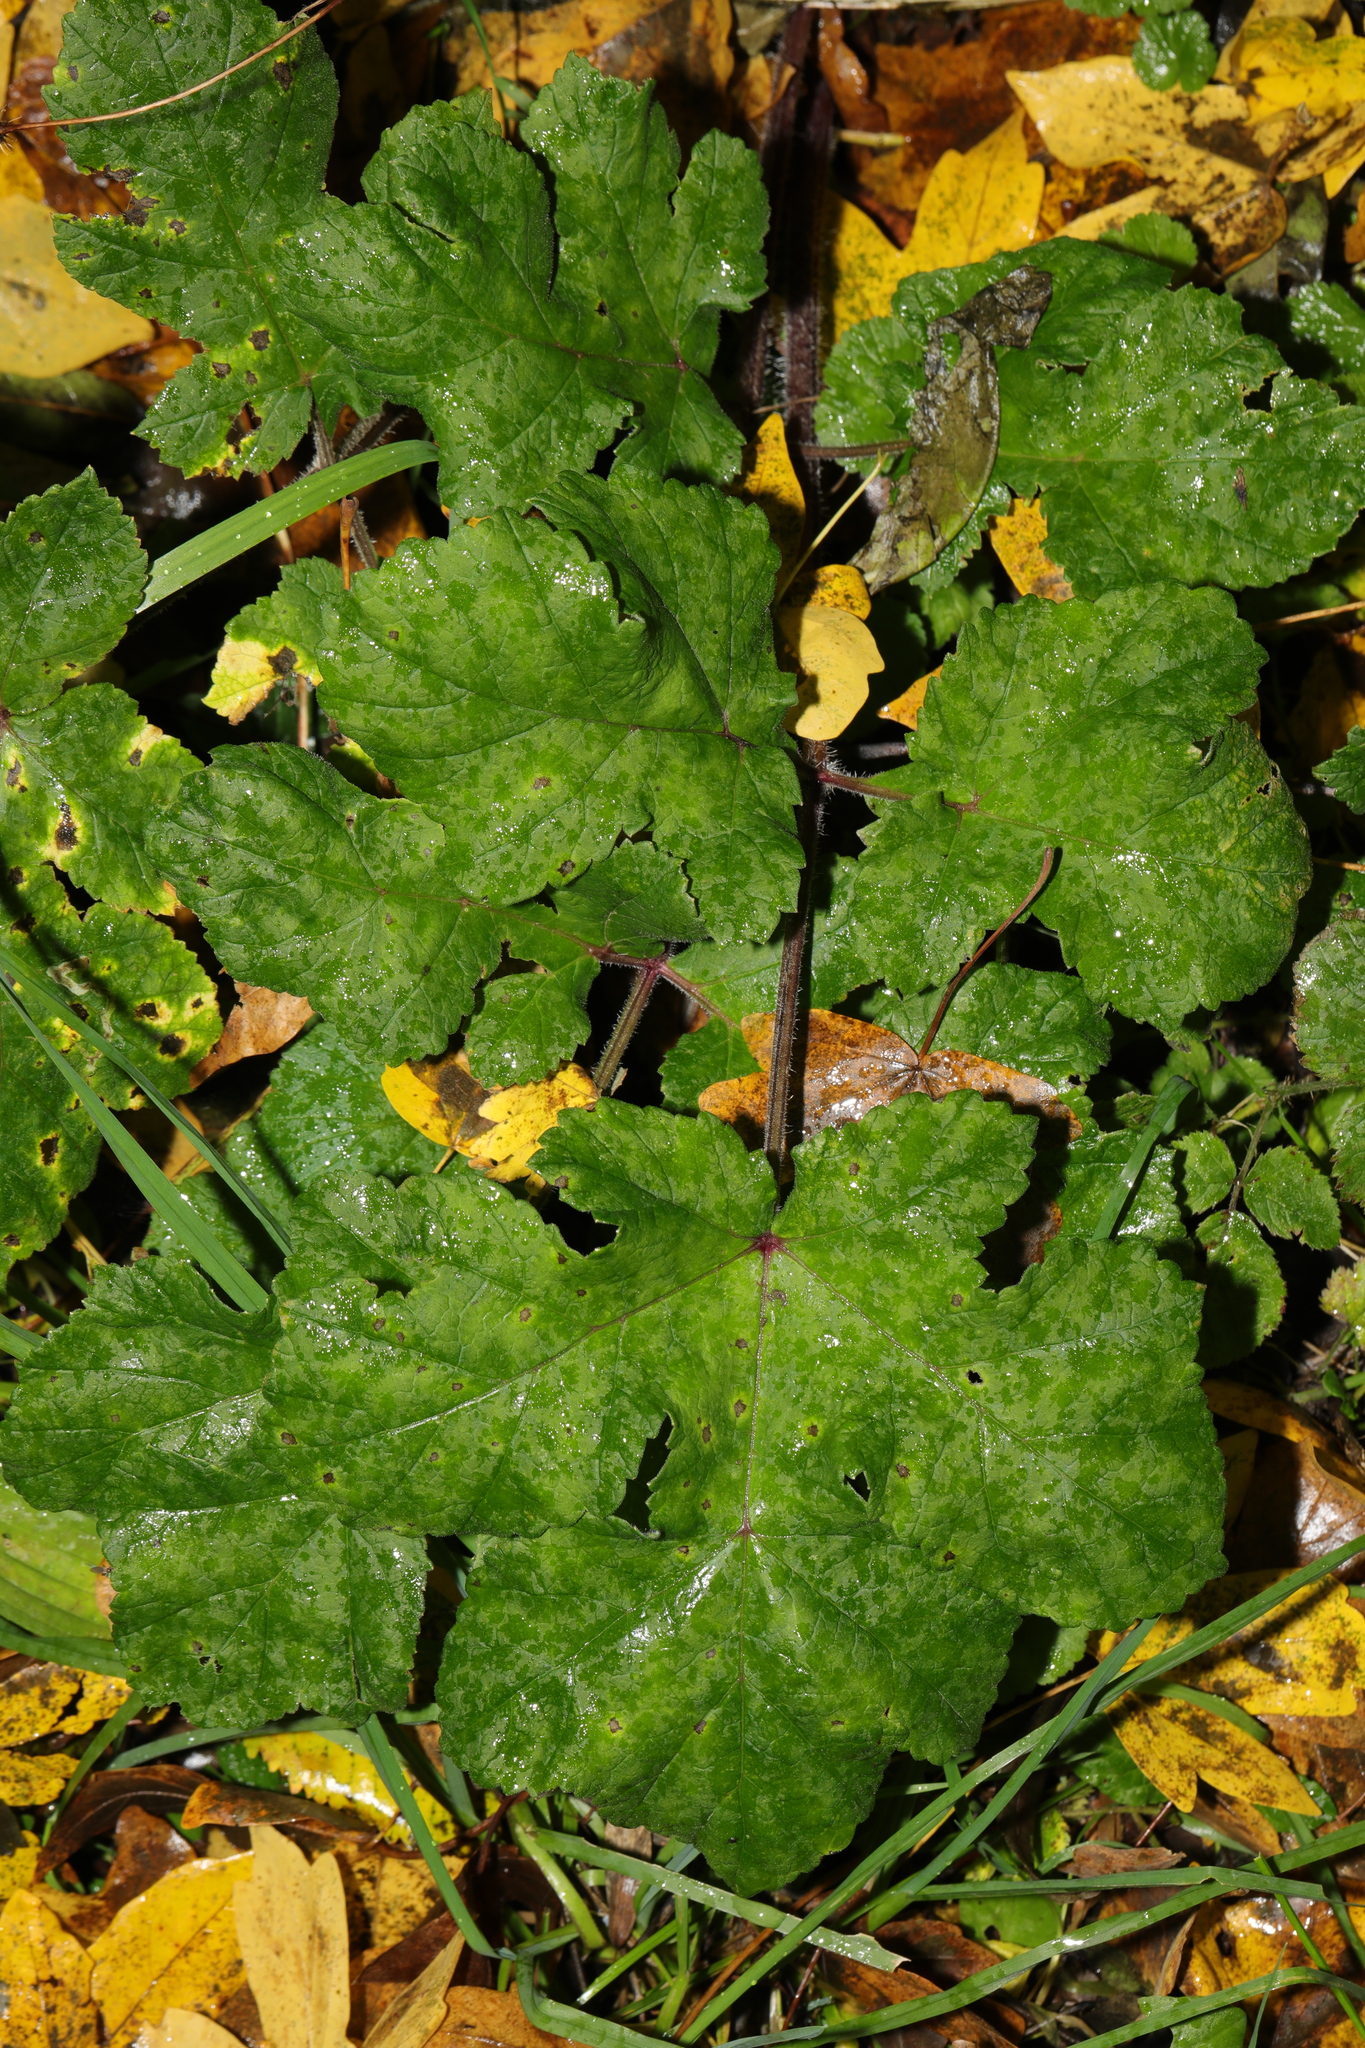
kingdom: Plantae
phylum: Tracheophyta
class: Magnoliopsida
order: Apiales
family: Apiaceae
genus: Heracleum
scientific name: Heracleum sphondylium
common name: Hogweed
